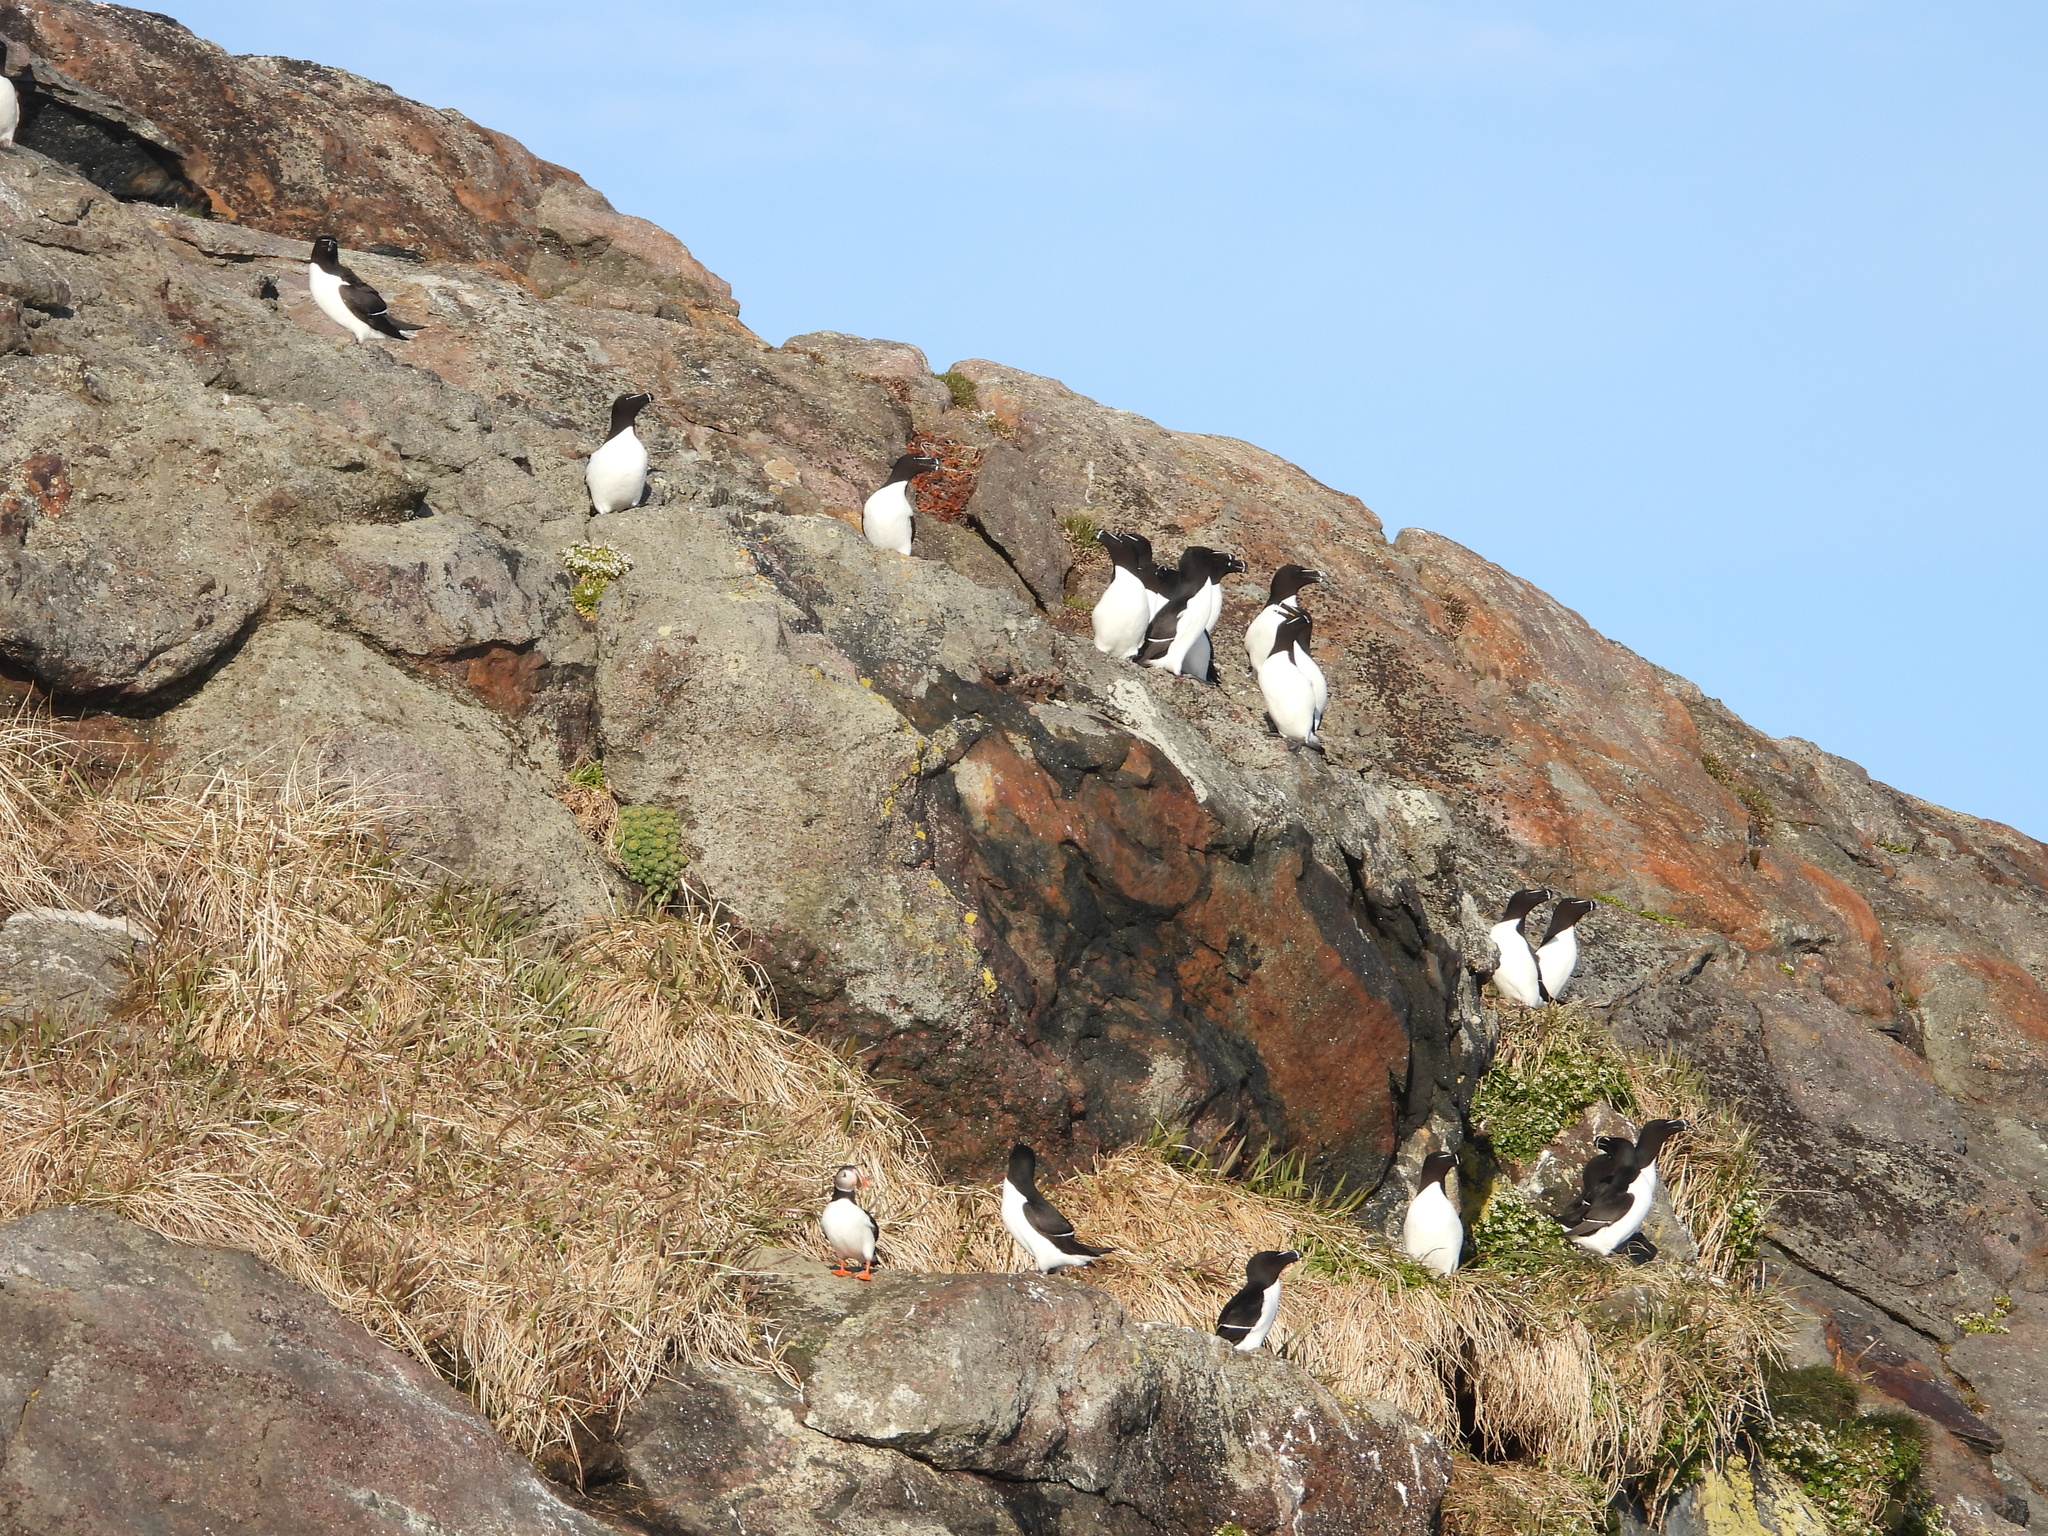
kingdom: Animalia
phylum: Chordata
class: Aves
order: Charadriiformes
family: Alcidae
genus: Alca
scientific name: Alca torda
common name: Razorbill
